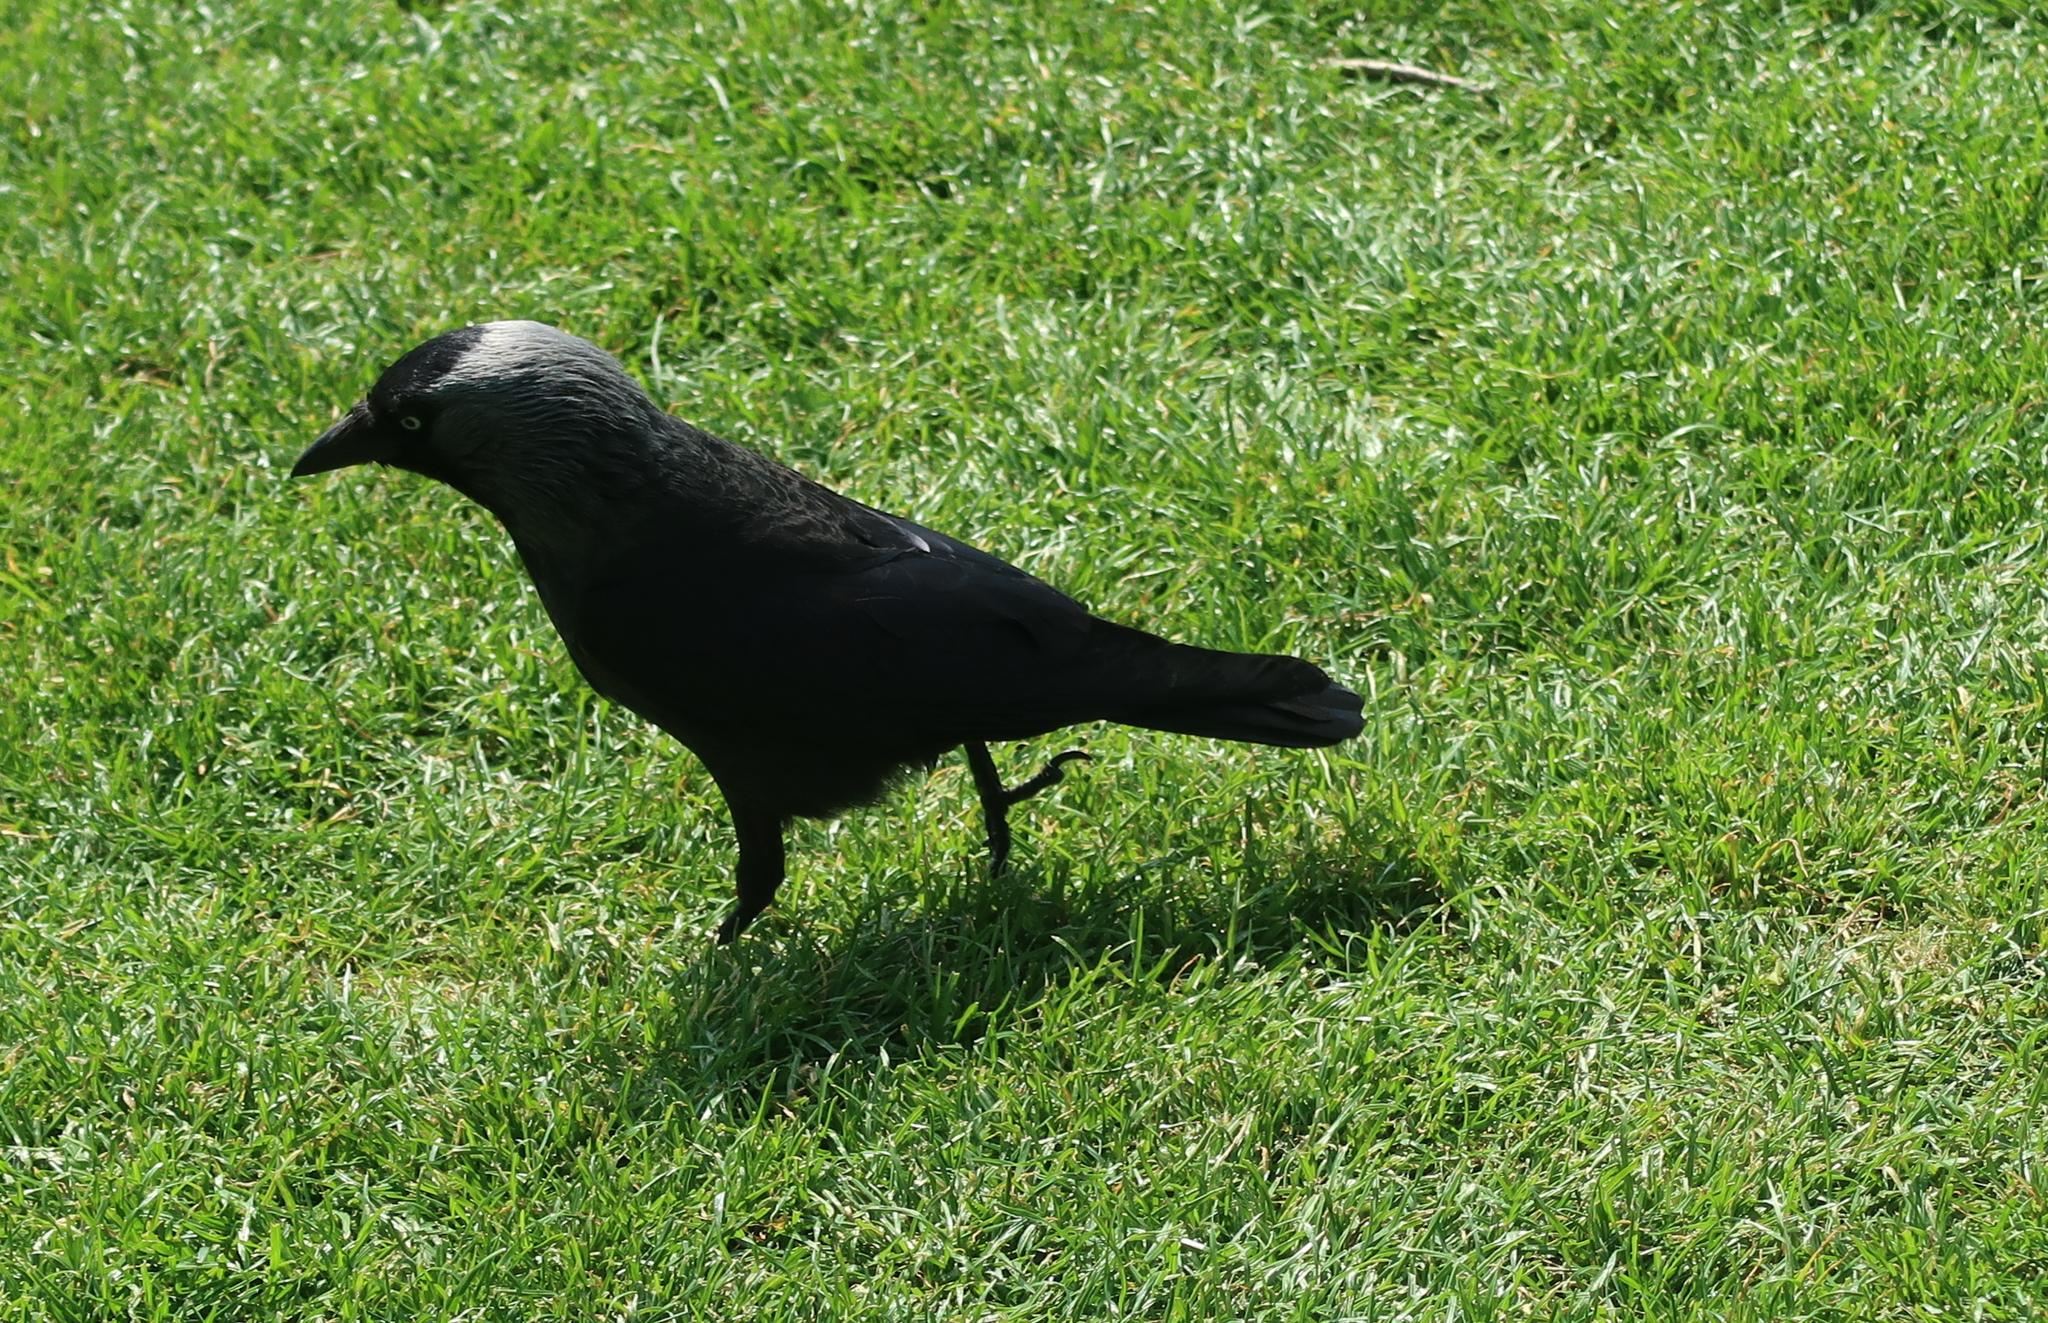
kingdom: Animalia
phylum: Chordata
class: Aves
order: Passeriformes
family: Corvidae
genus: Coloeus
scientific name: Coloeus monedula
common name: Western jackdaw
